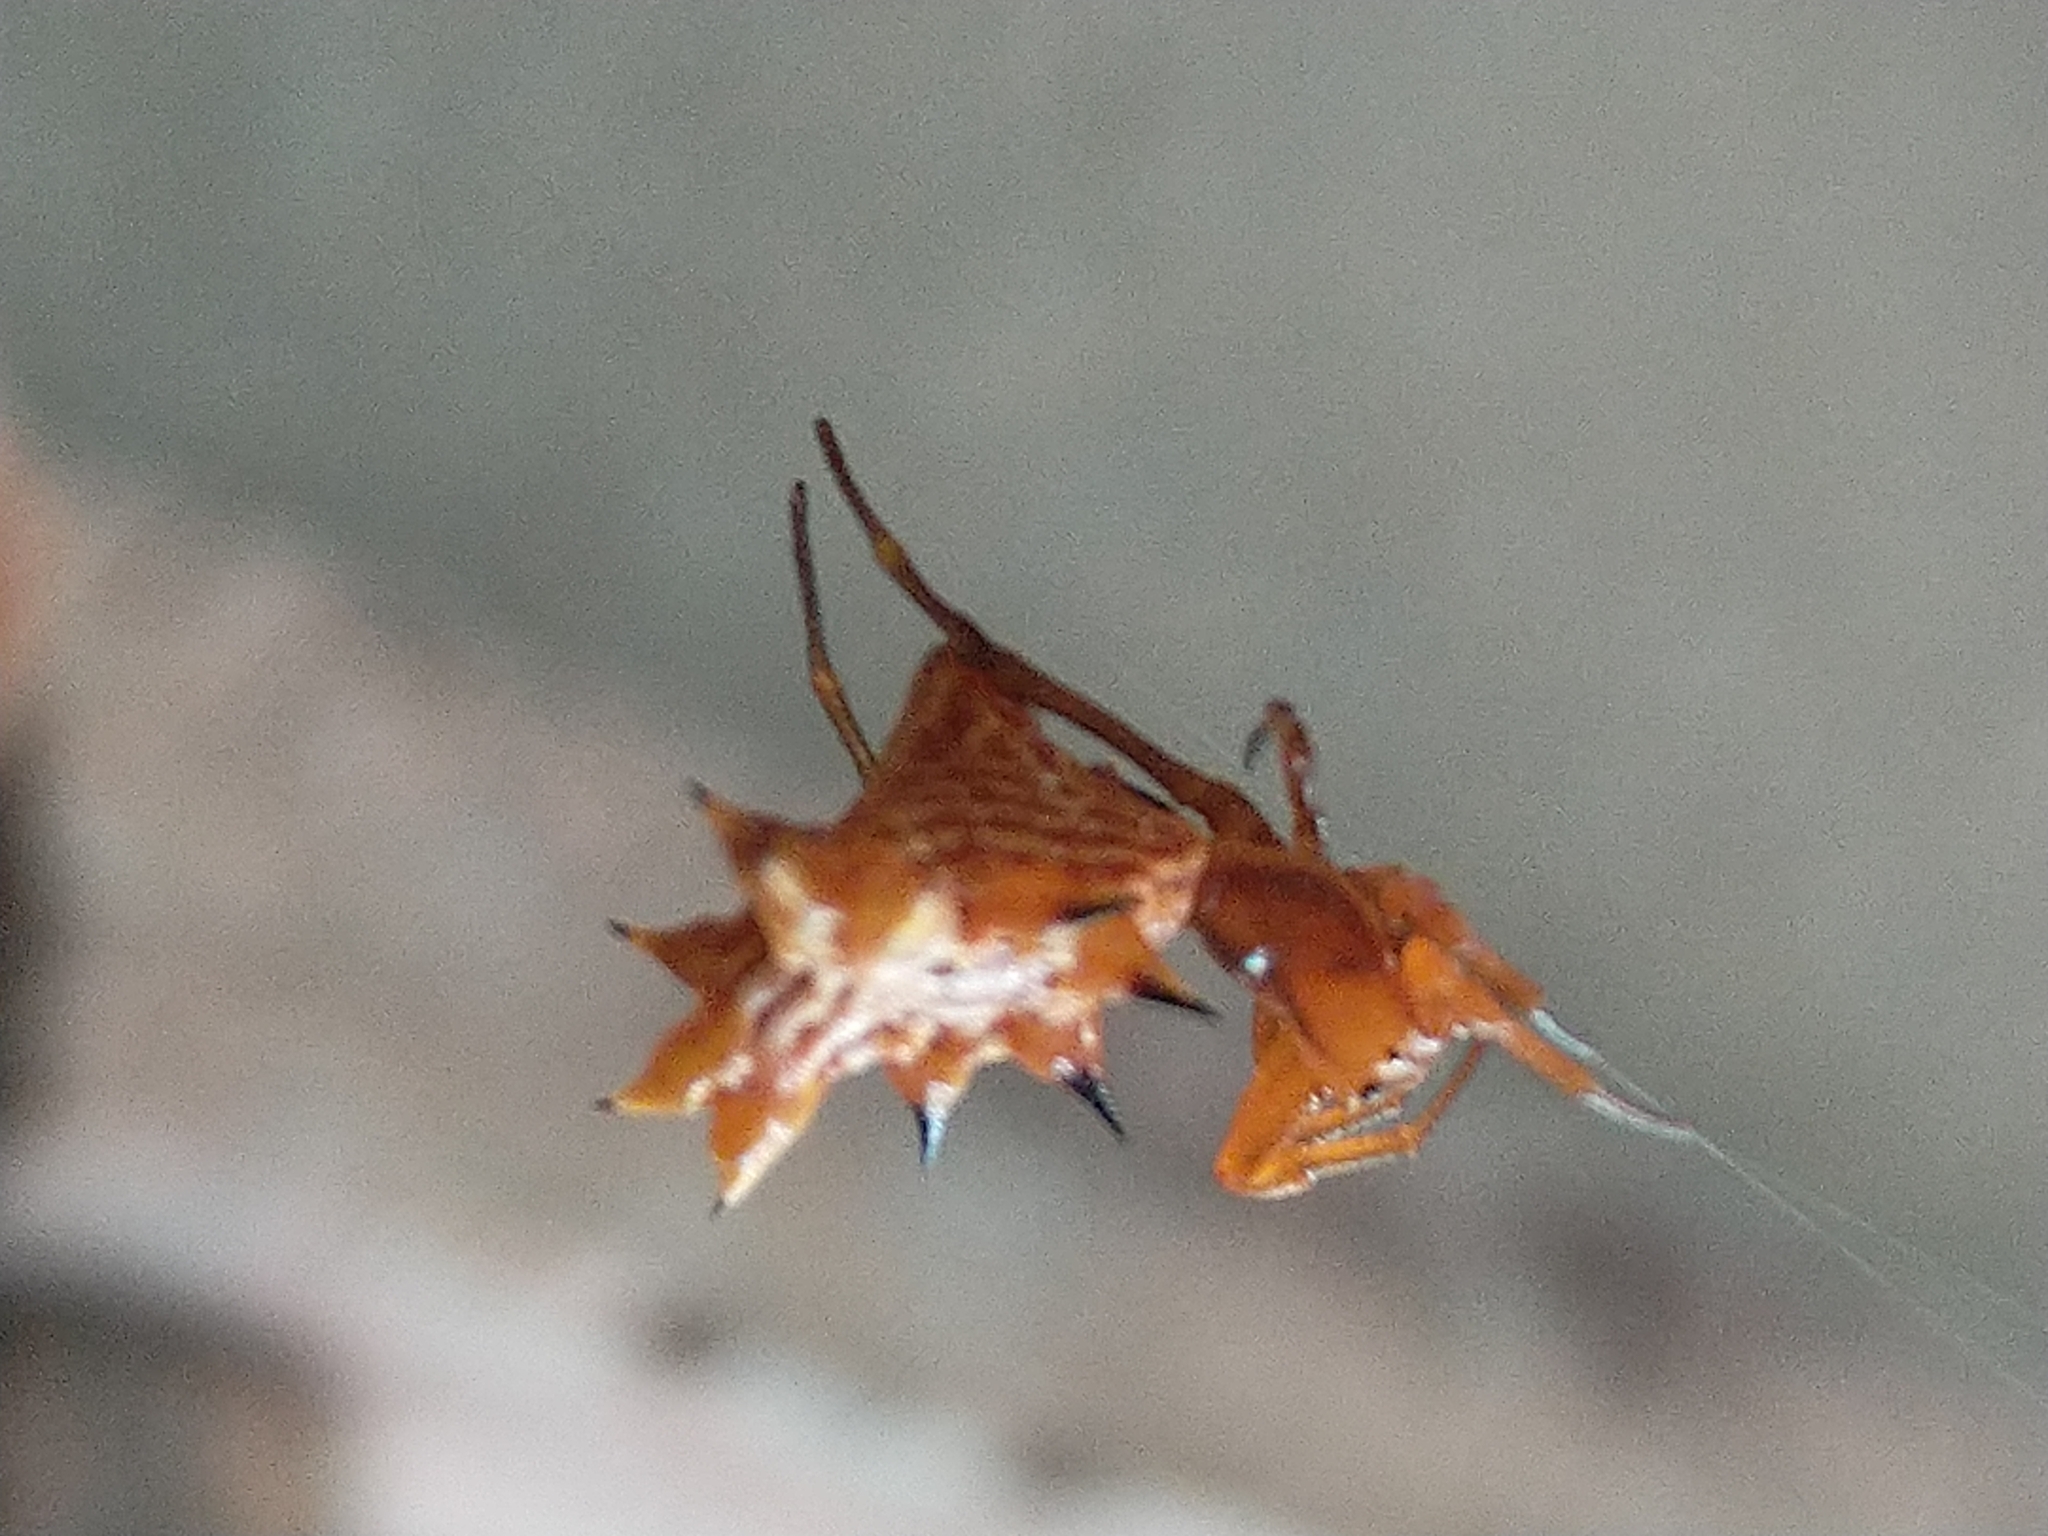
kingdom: Animalia
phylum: Arthropoda
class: Arachnida
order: Araneae
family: Araneidae
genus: Micrathena
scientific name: Micrathena gracilis
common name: Orb weavers
